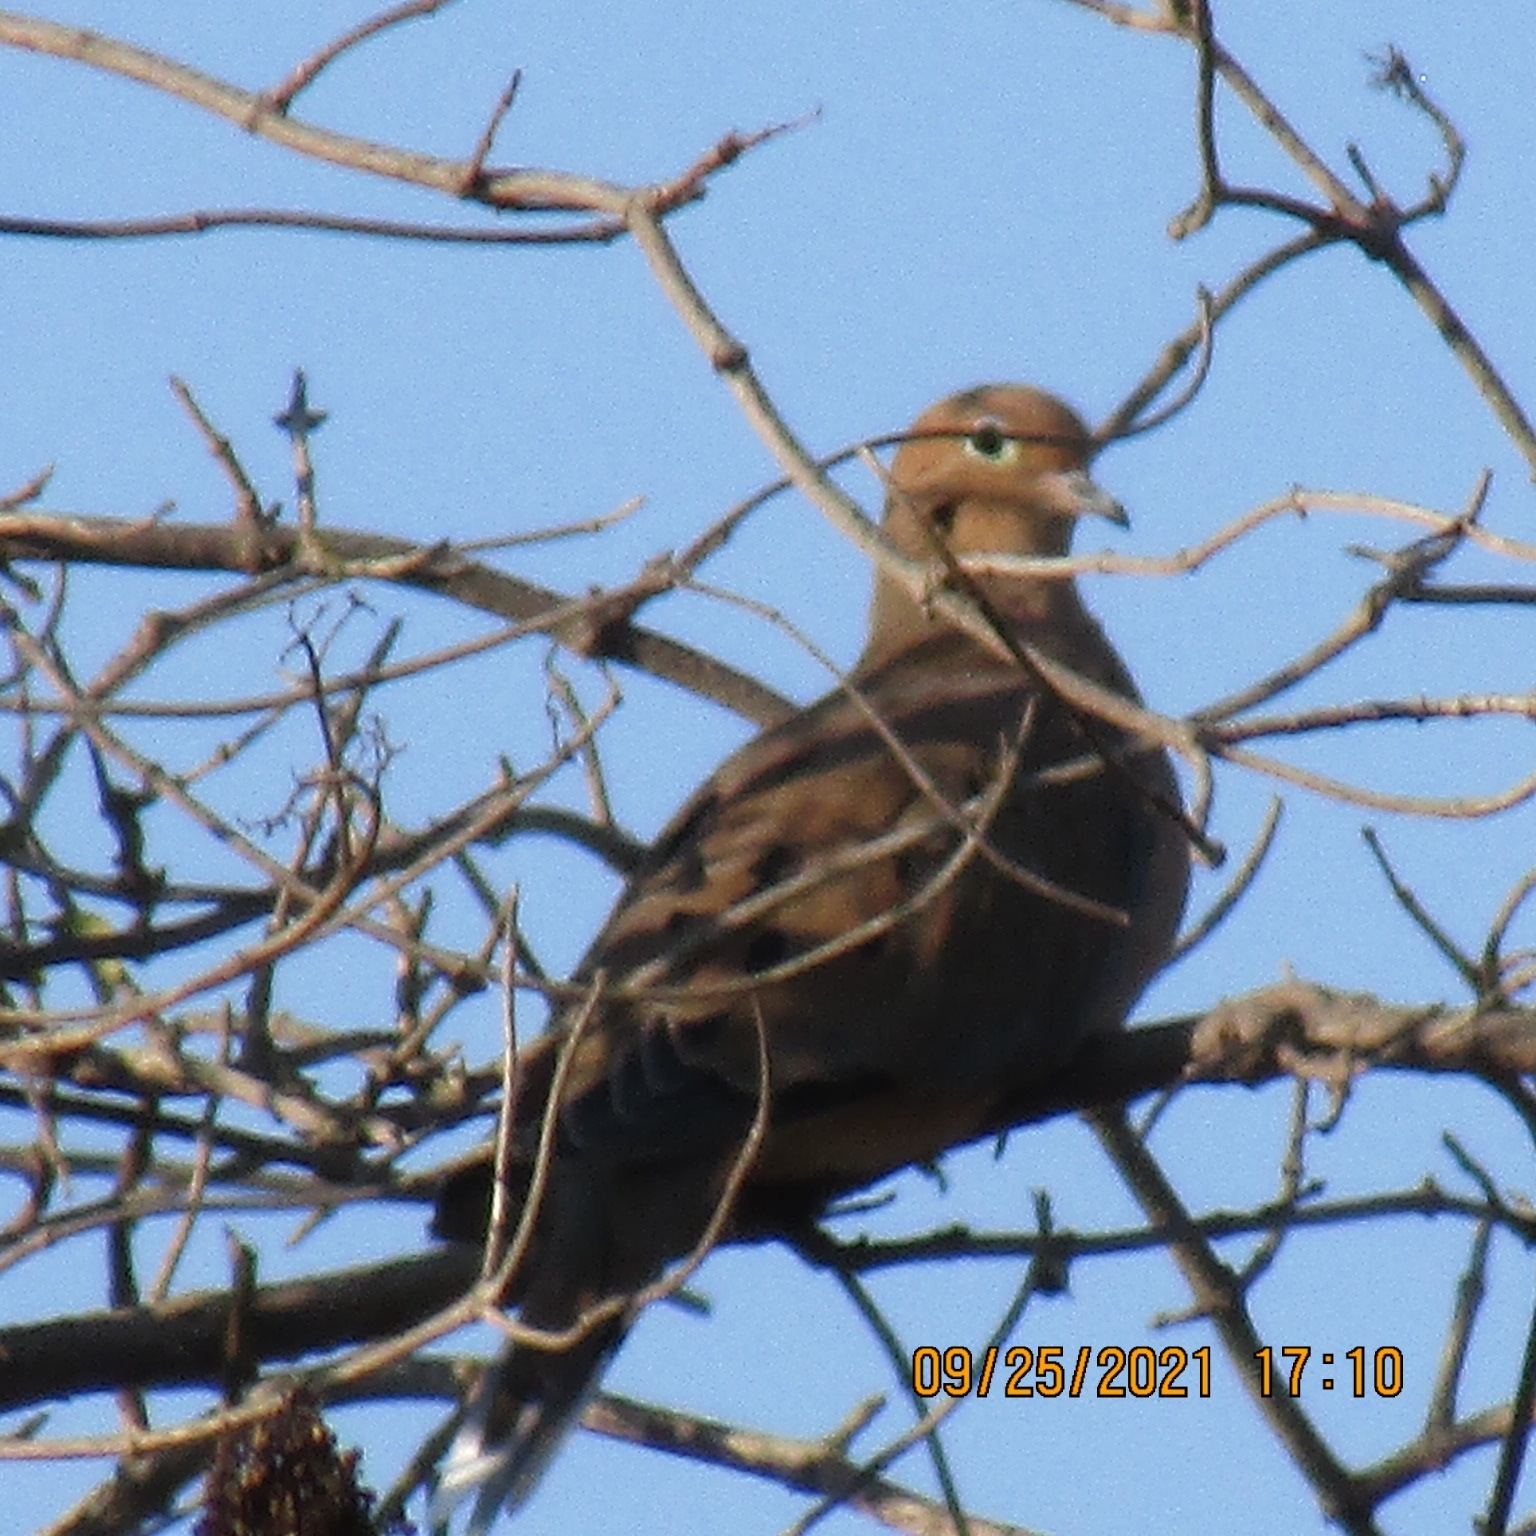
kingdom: Animalia
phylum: Chordata
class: Aves
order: Columbiformes
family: Columbidae
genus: Zenaida
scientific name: Zenaida macroura
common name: Mourning dove
